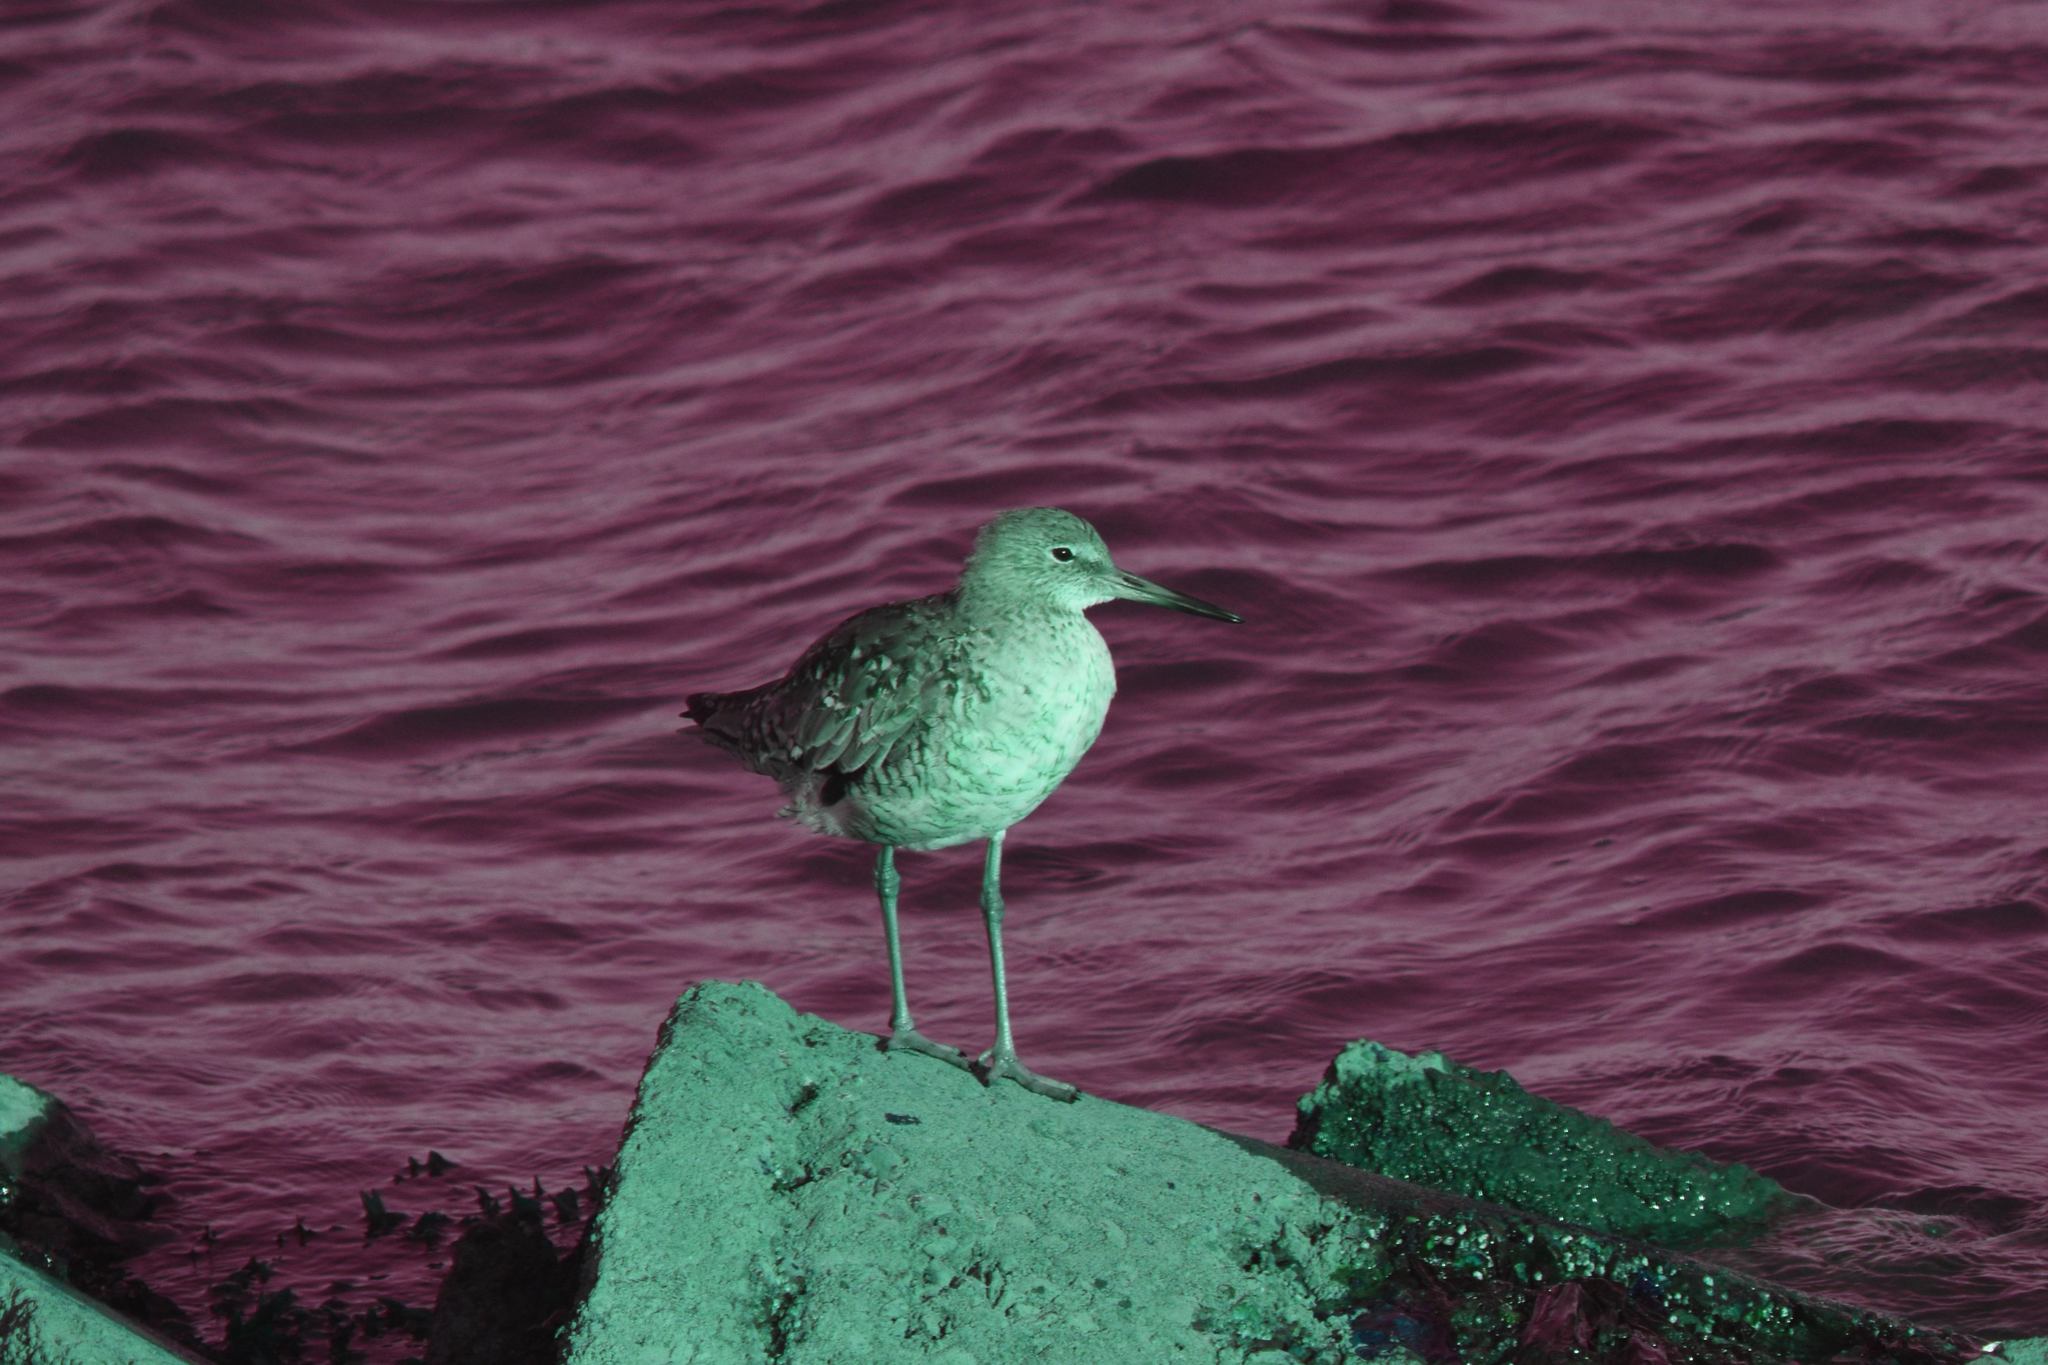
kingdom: Animalia
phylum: Chordata
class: Aves
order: Charadriiformes
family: Scolopacidae
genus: Tringa
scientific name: Tringa semipalmata
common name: Willet
